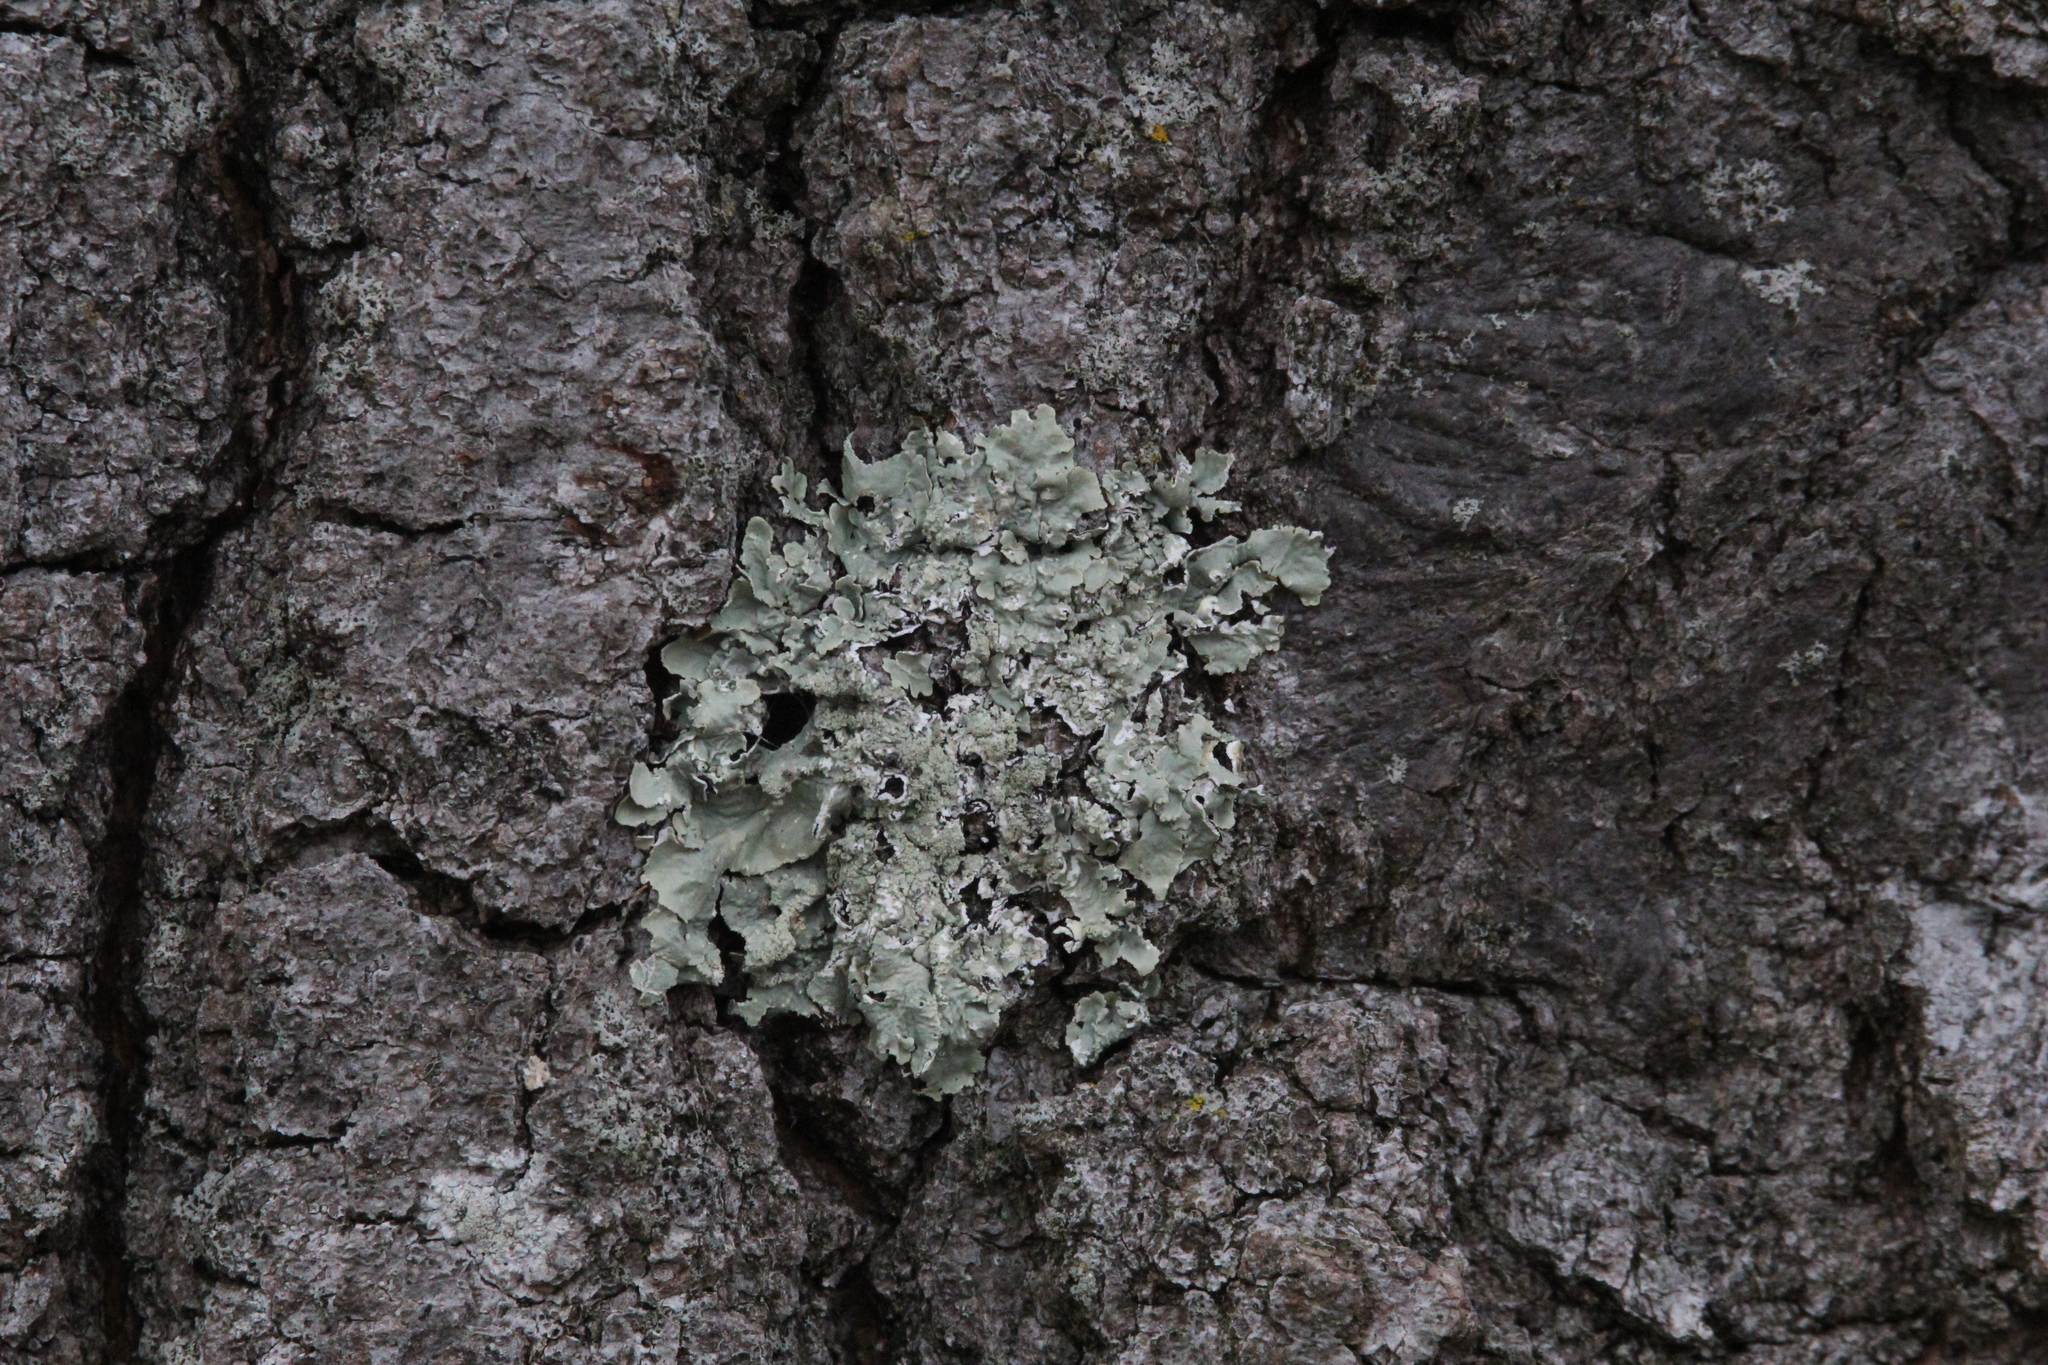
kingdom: Fungi
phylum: Ascomycota
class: Lecanoromycetes
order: Lecanorales
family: Parmeliaceae
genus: Flavoparmelia
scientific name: Flavoparmelia caperata
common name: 40-mile per hour lichen
